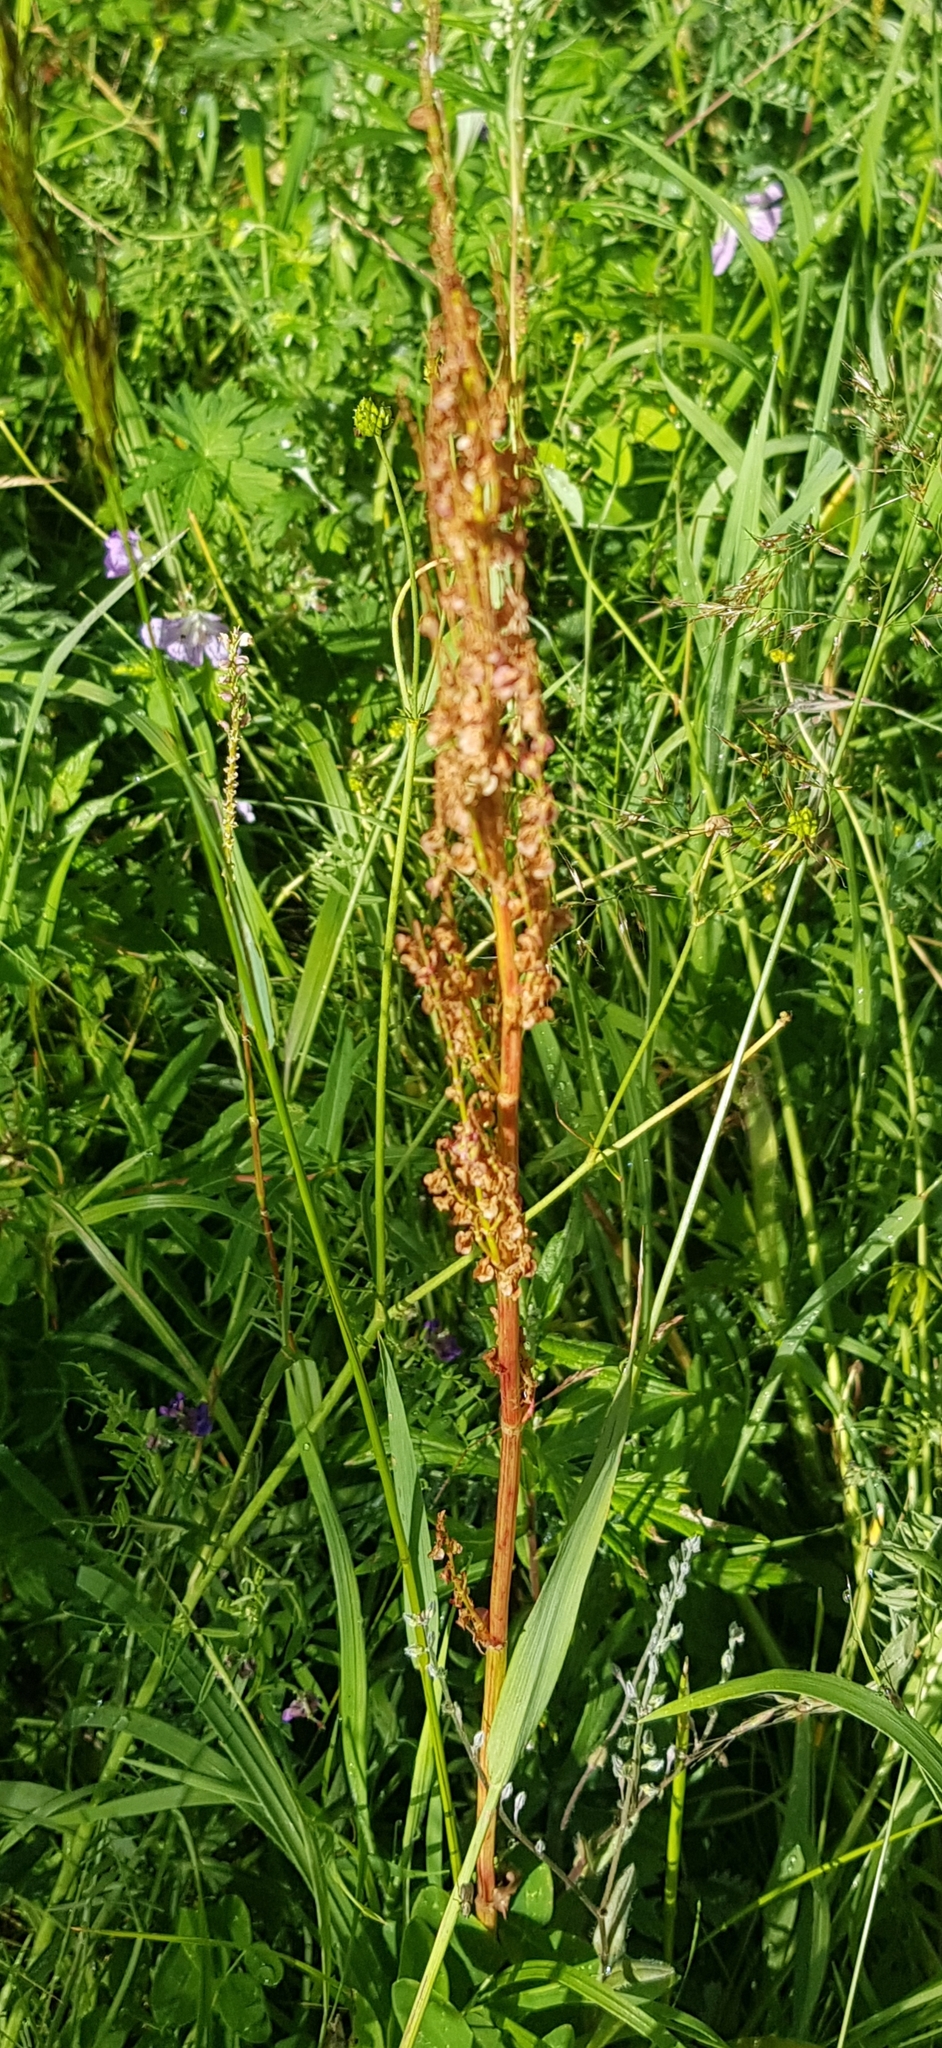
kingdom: Plantae
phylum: Tracheophyta
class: Magnoliopsida
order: Caryophyllales
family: Polygonaceae
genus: Rumex
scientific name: Rumex acetosa
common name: Garden sorrel
